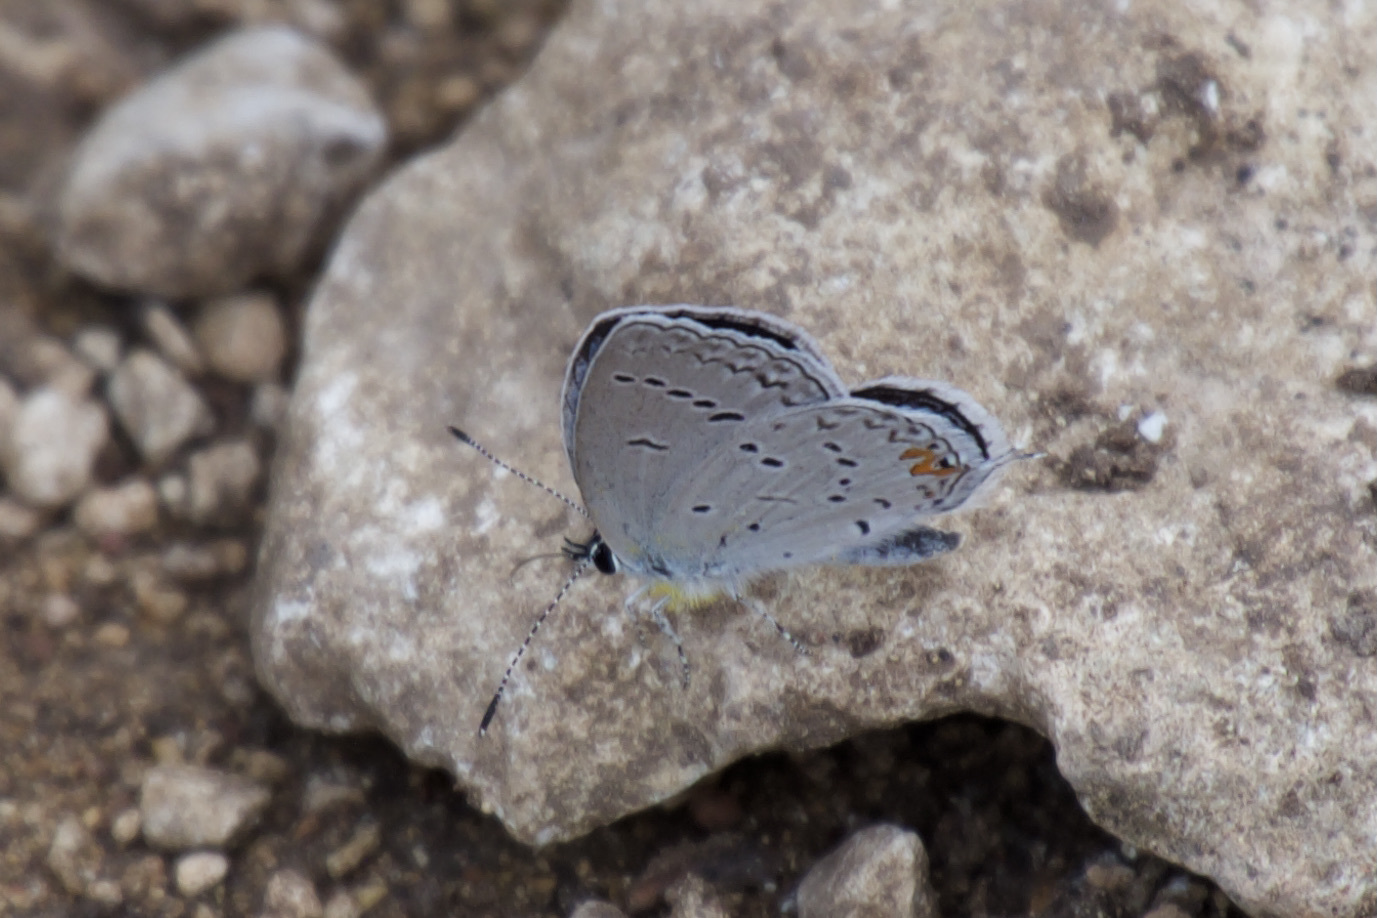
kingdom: Animalia
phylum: Arthropoda
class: Insecta
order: Lepidoptera
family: Lycaenidae
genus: Elkalyce
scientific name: Elkalyce comyntas
